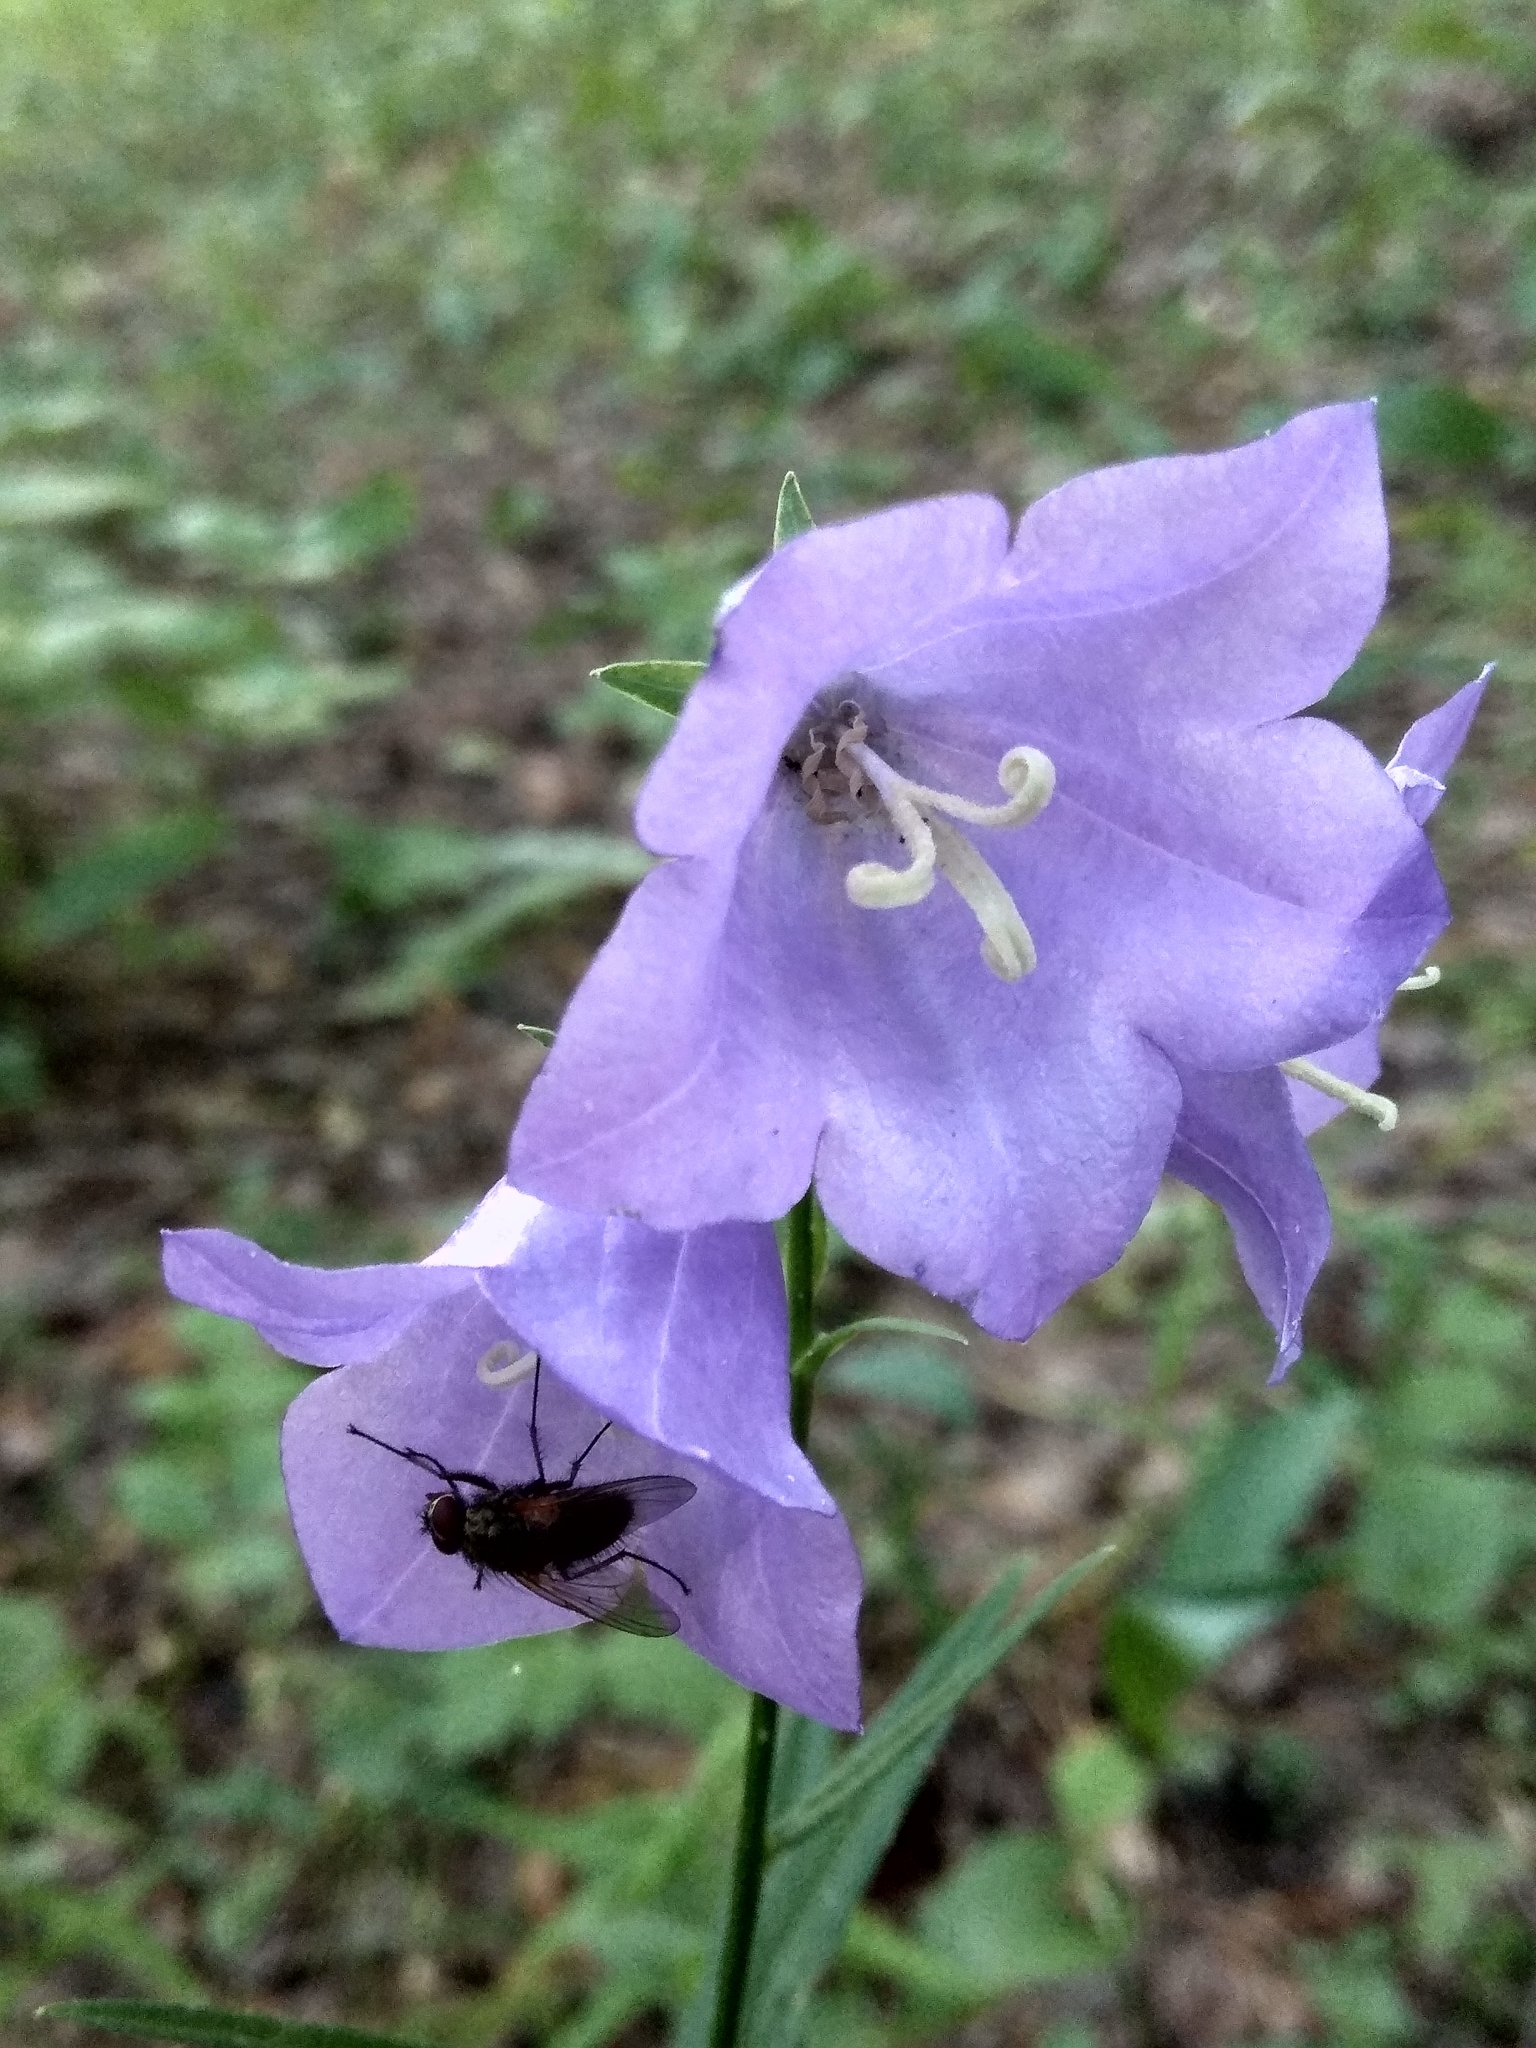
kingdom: Plantae
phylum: Tracheophyta
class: Magnoliopsida
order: Asterales
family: Campanulaceae
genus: Campanula
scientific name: Campanula persicifolia
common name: Peach-leaved bellflower
